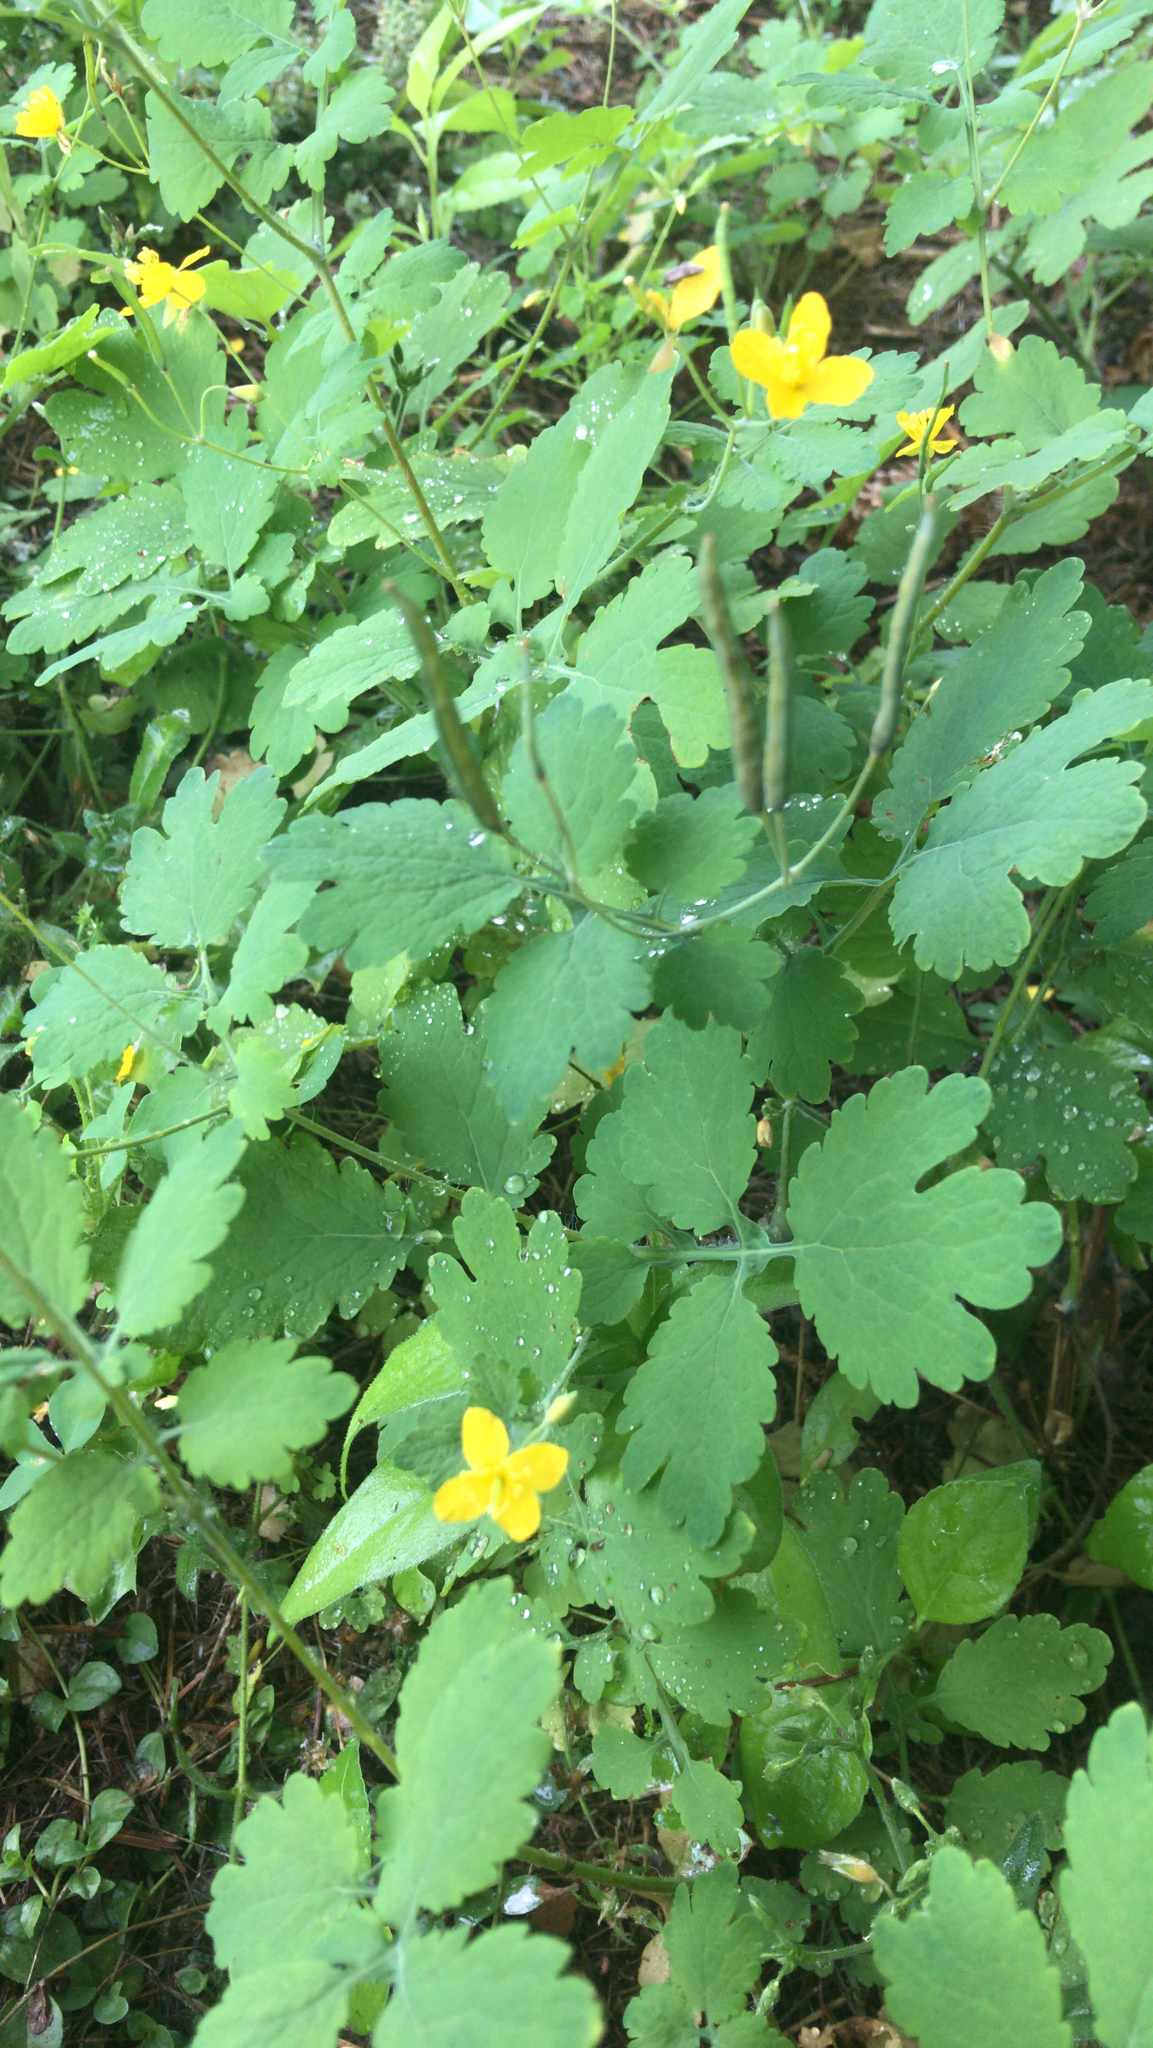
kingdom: Plantae
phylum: Tracheophyta
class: Magnoliopsida
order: Ranunculales
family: Papaveraceae
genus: Chelidonium
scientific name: Chelidonium majus
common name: Greater celandine
